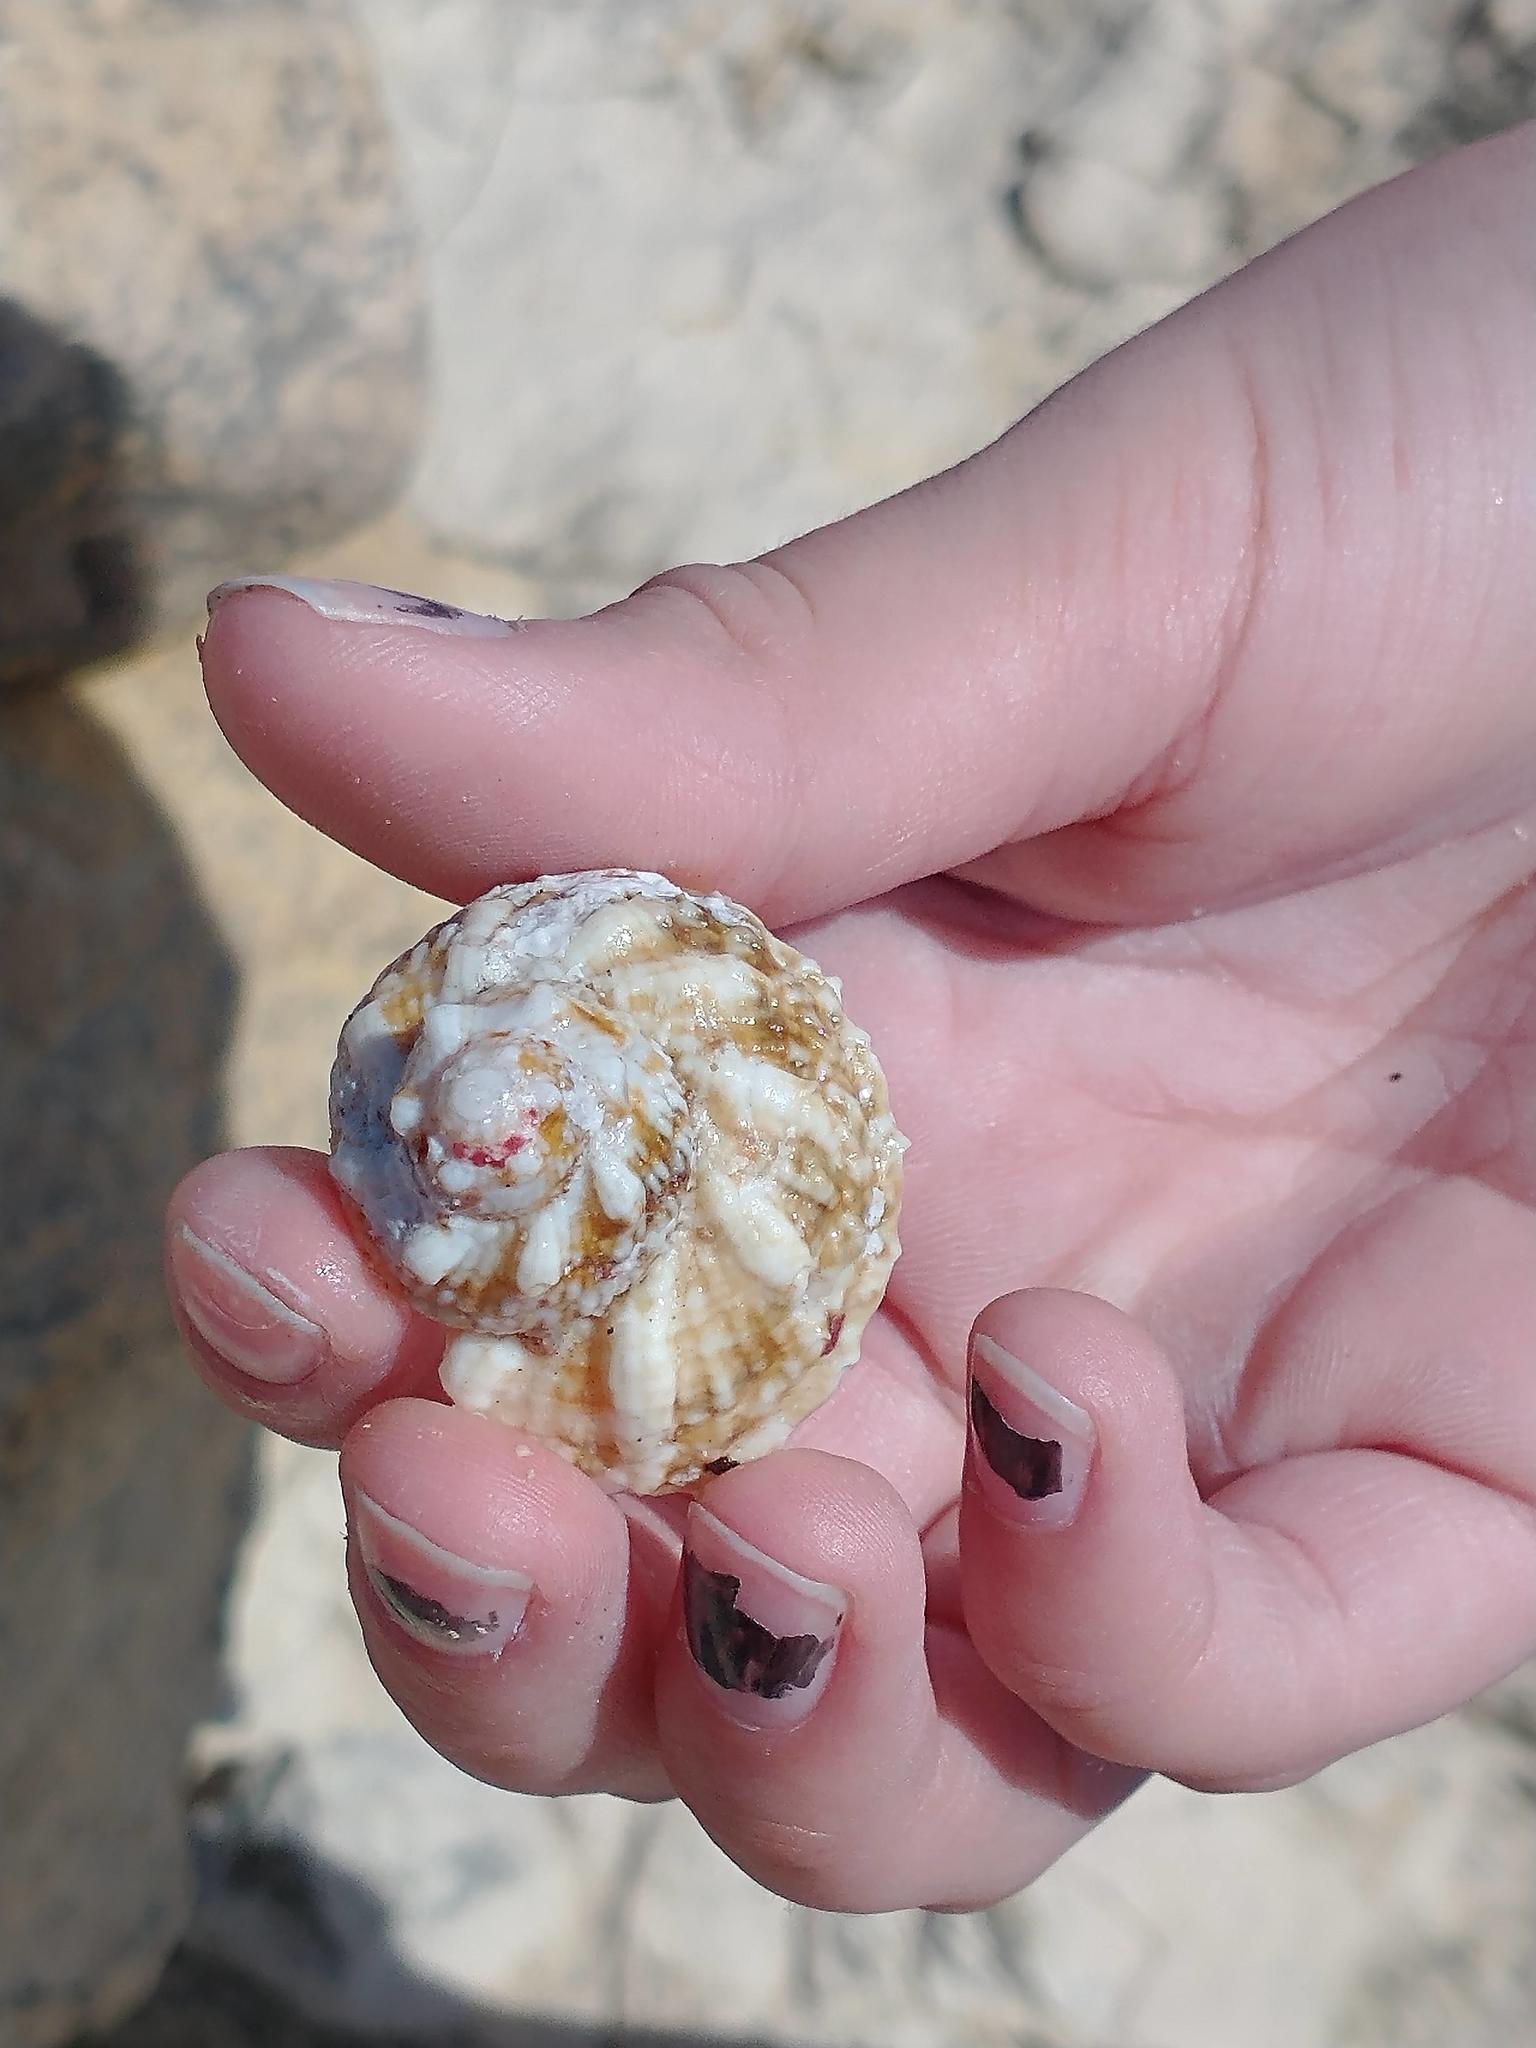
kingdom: Animalia
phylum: Mollusca
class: Gastropoda
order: Trochida
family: Turbinidae
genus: Lithopoma
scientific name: Lithopoma tuber
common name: Green starsnail
